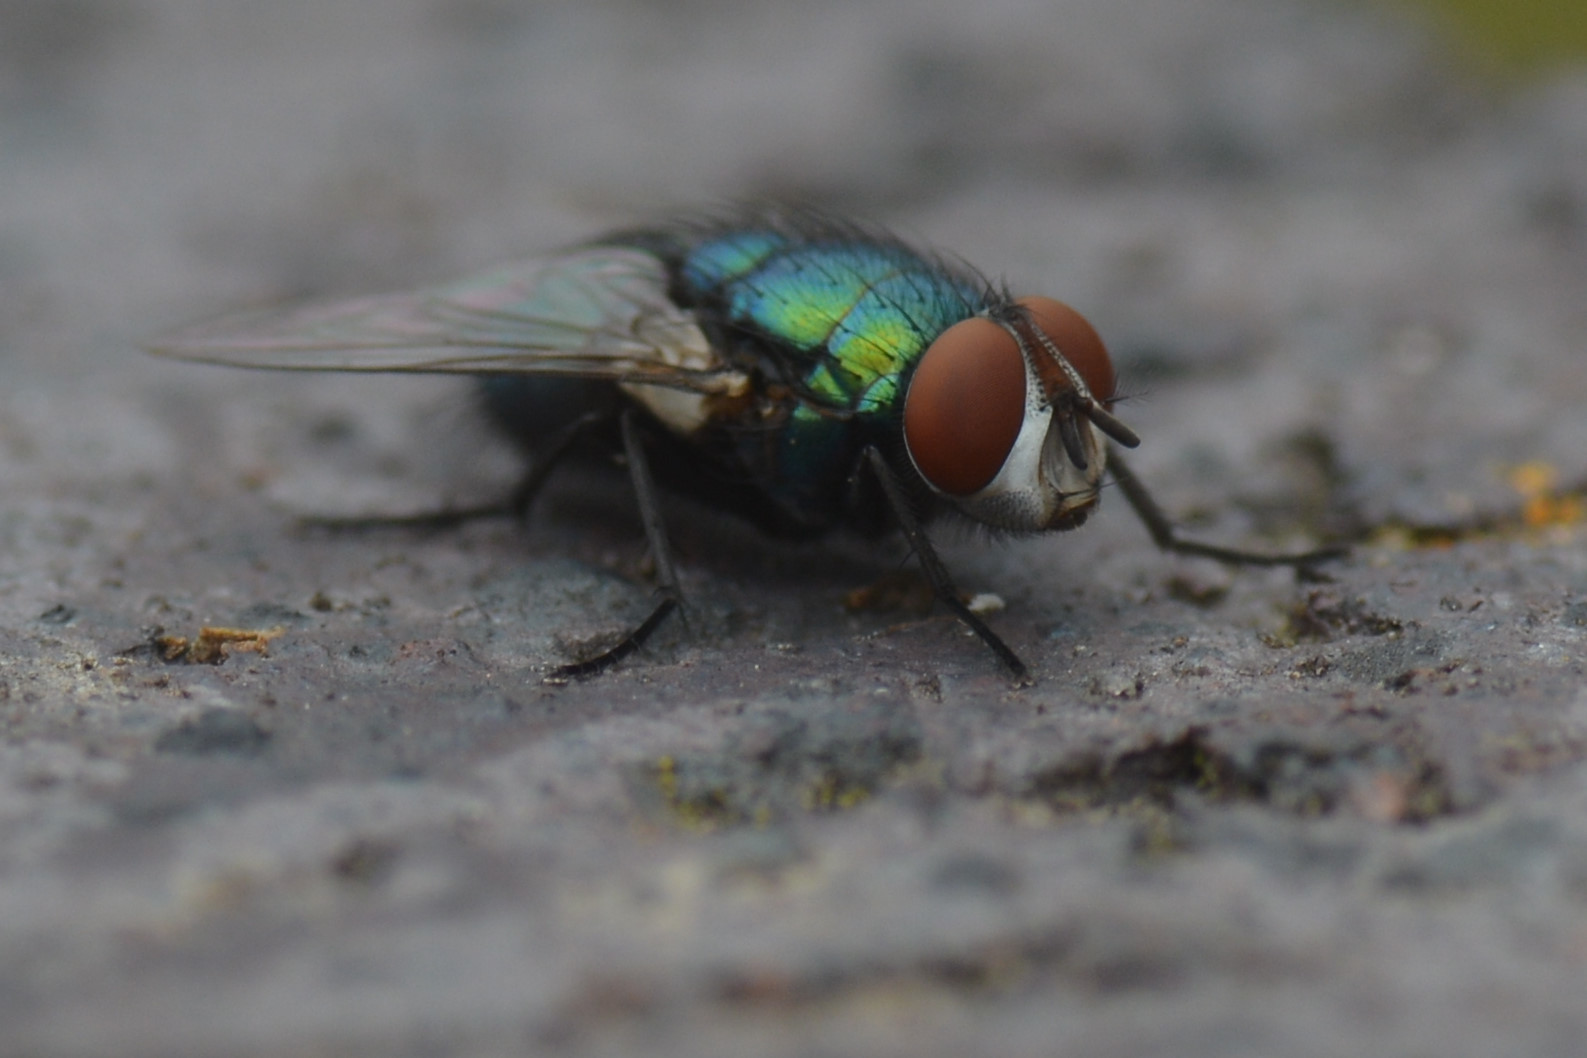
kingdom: Animalia
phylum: Arthropoda
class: Insecta
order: Diptera
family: Calliphoridae
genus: Lucilia
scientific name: Lucilia sericata
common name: Blow fly
